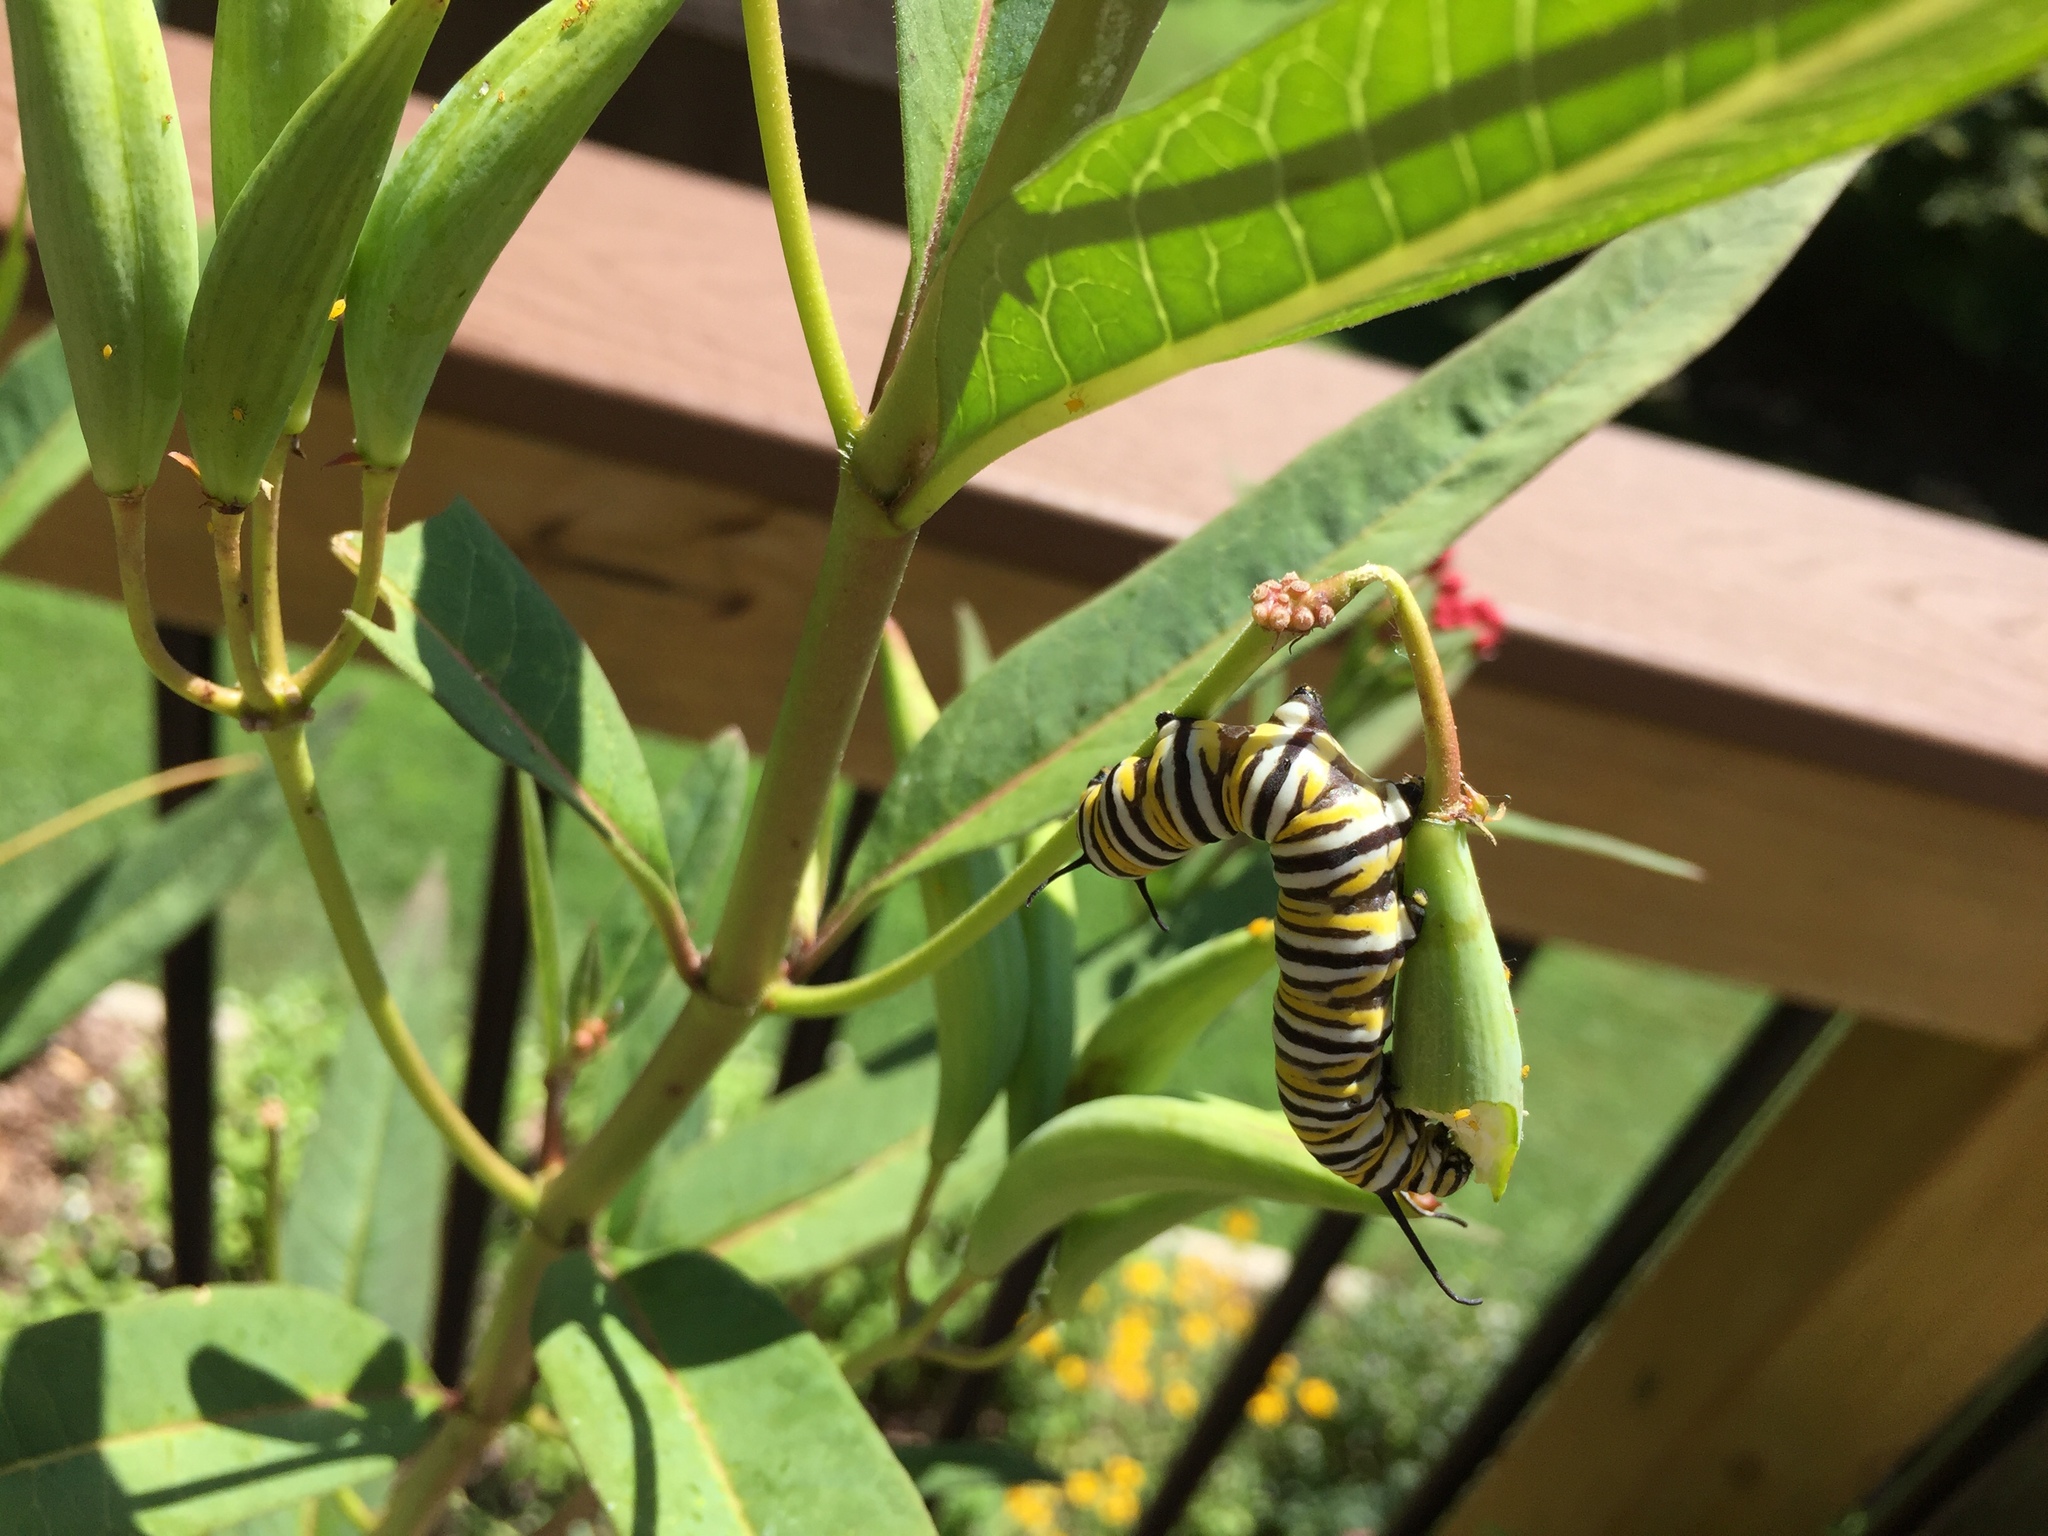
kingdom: Animalia
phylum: Arthropoda
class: Insecta
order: Lepidoptera
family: Nymphalidae
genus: Danaus
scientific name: Danaus plexippus
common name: Monarch
